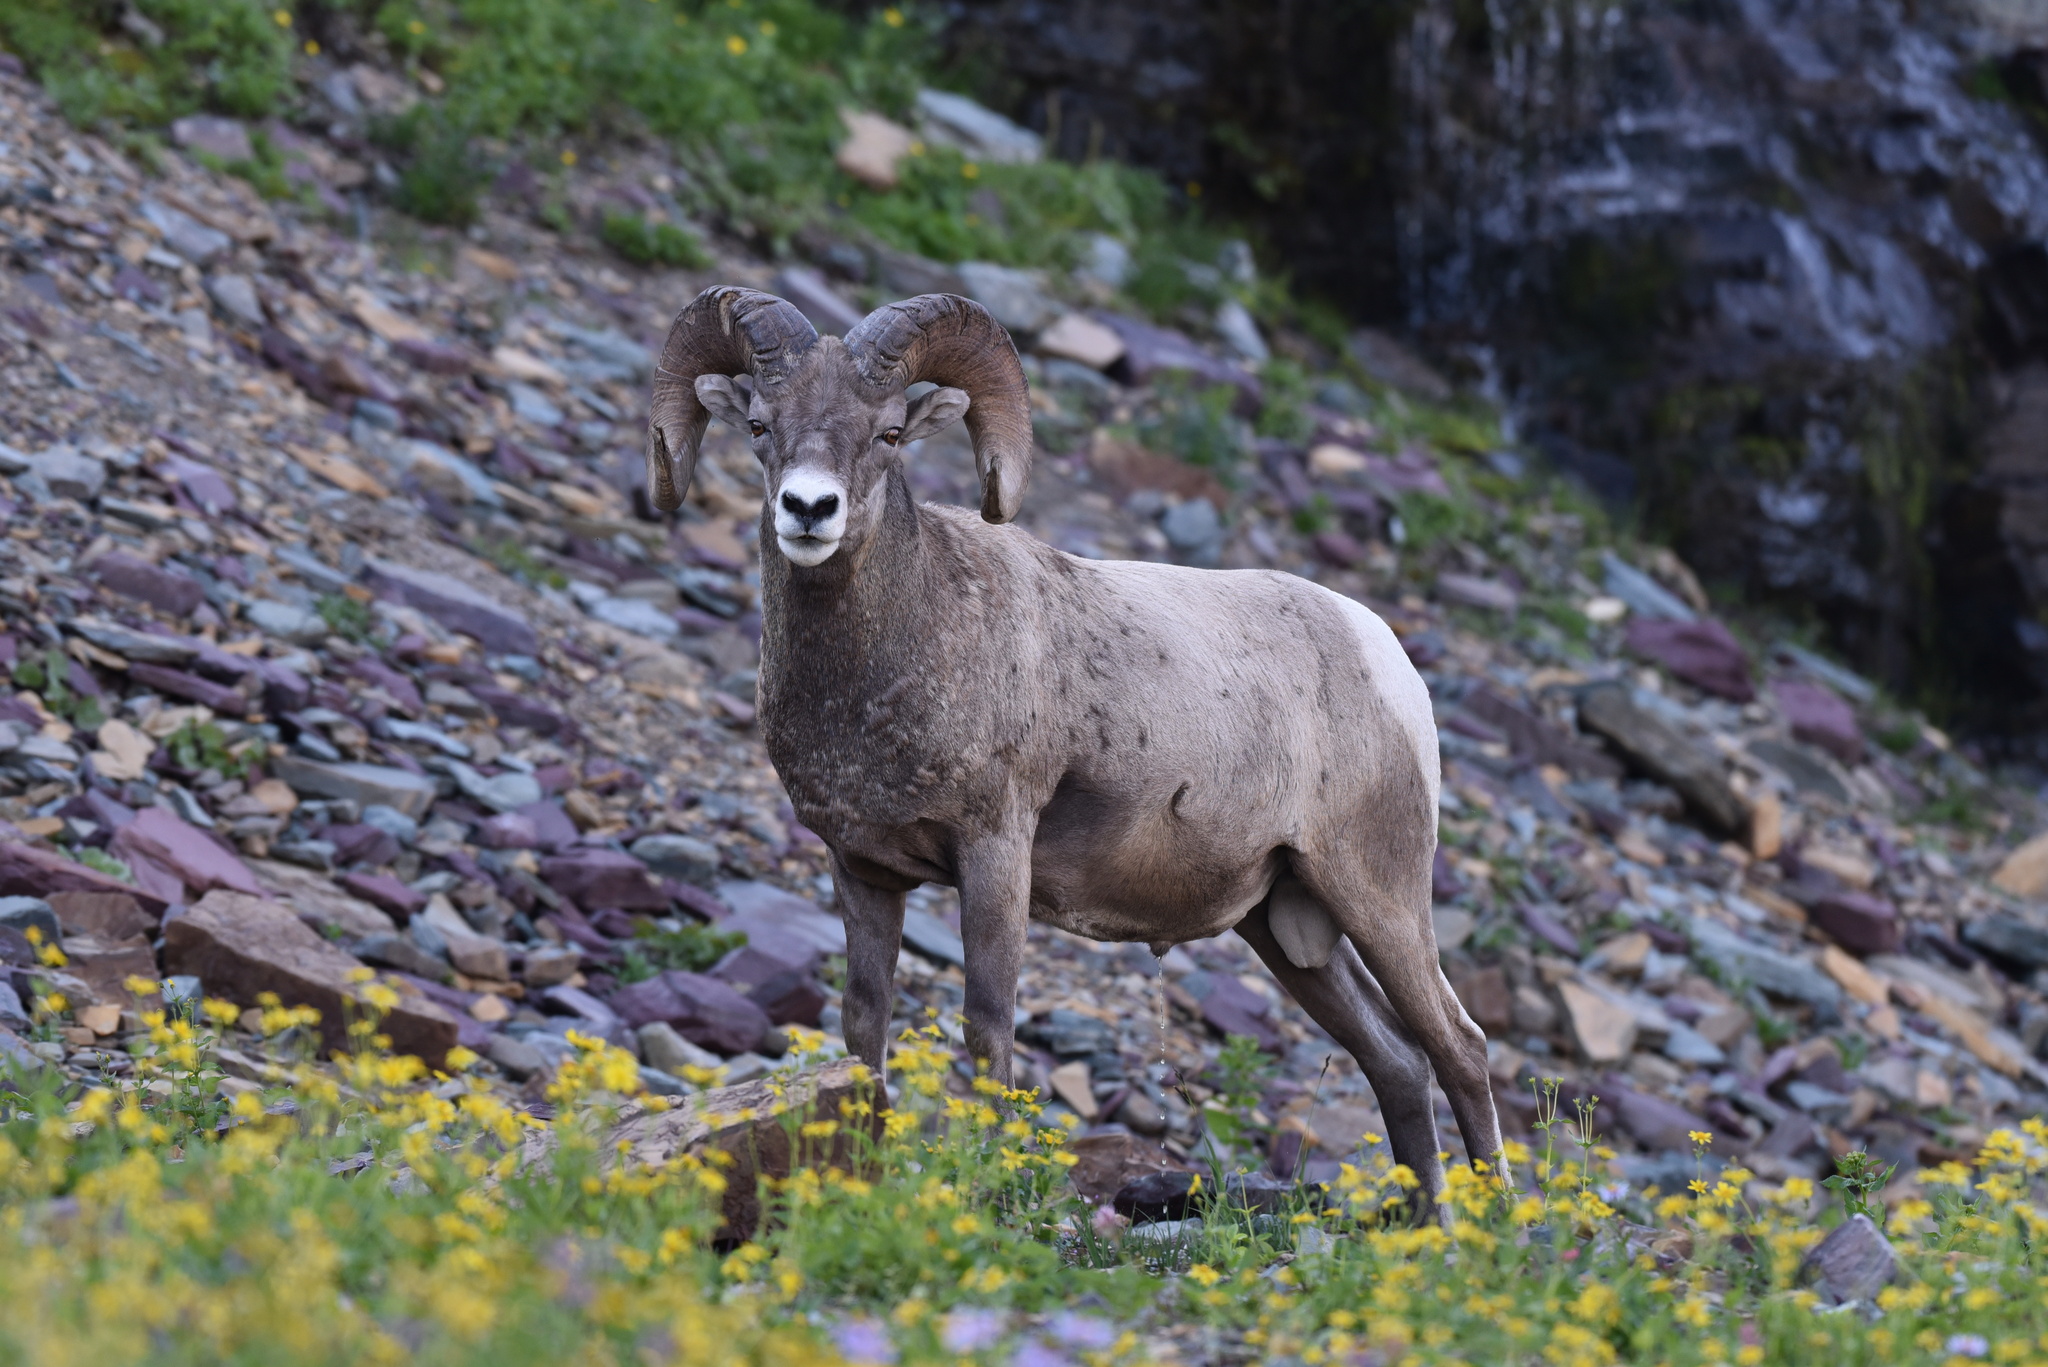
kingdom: Animalia
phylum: Chordata
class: Mammalia
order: Artiodactyla
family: Bovidae
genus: Ovis
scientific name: Ovis canadensis
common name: Bighorn sheep
